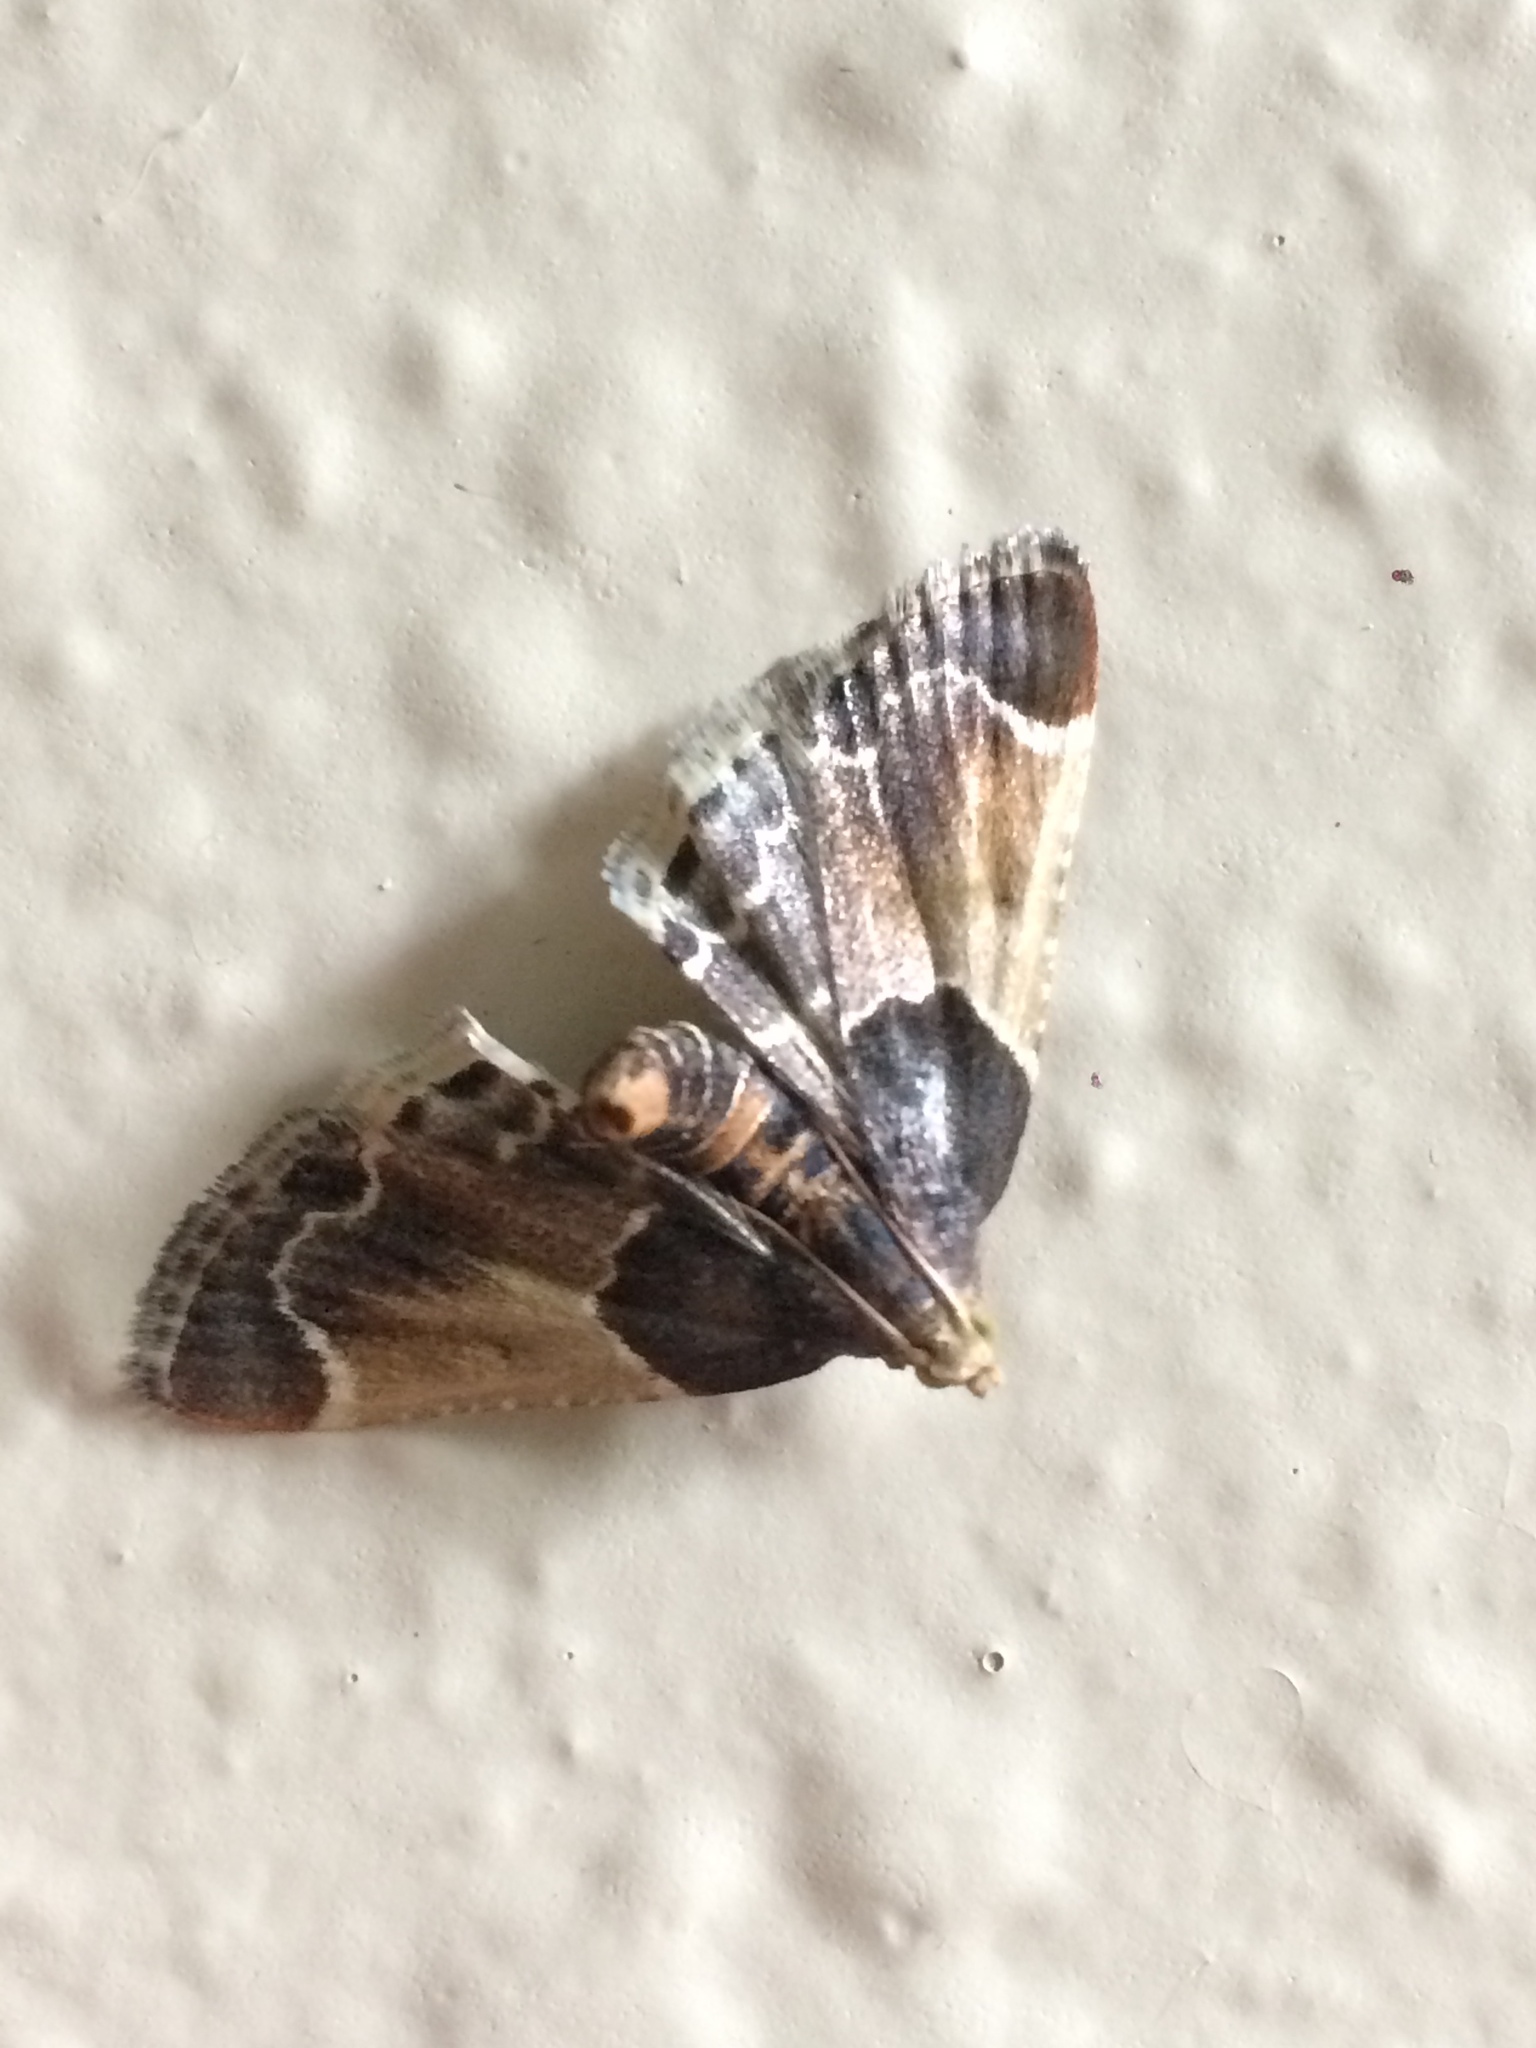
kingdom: Animalia
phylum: Arthropoda
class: Insecta
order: Lepidoptera
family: Pyralidae
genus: Pyralis
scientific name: Pyralis farinalis
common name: Meal moth
